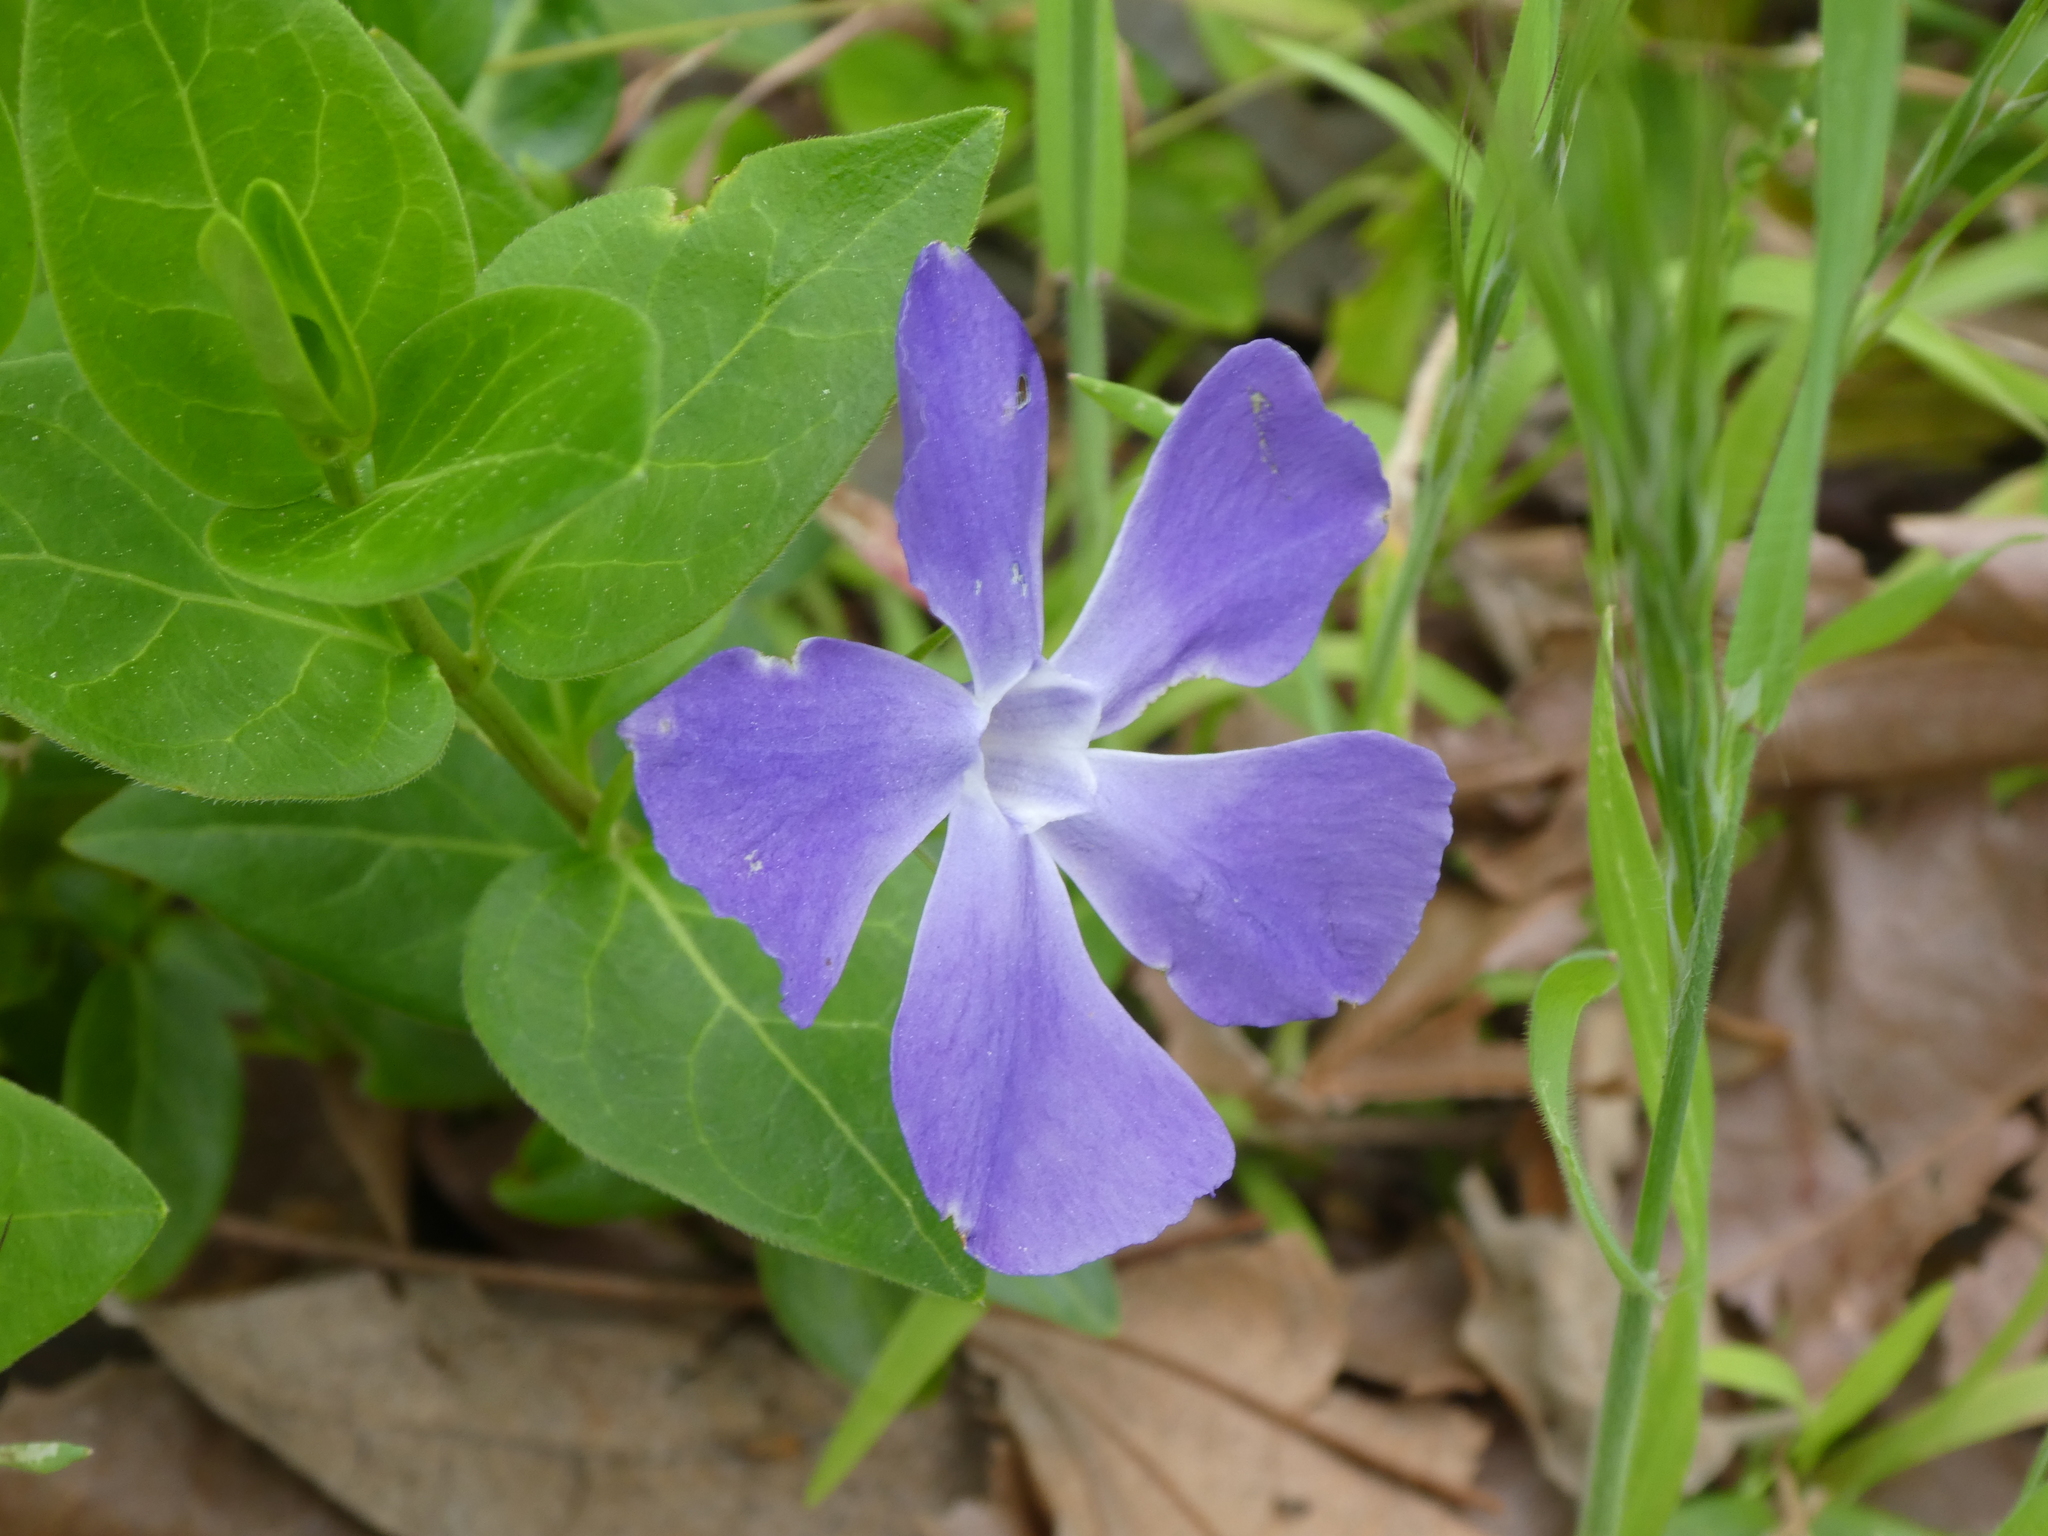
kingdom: Plantae
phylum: Tracheophyta
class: Magnoliopsida
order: Gentianales
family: Apocynaceae
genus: Vinca
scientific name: Vinca major
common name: Greater periwinkle
